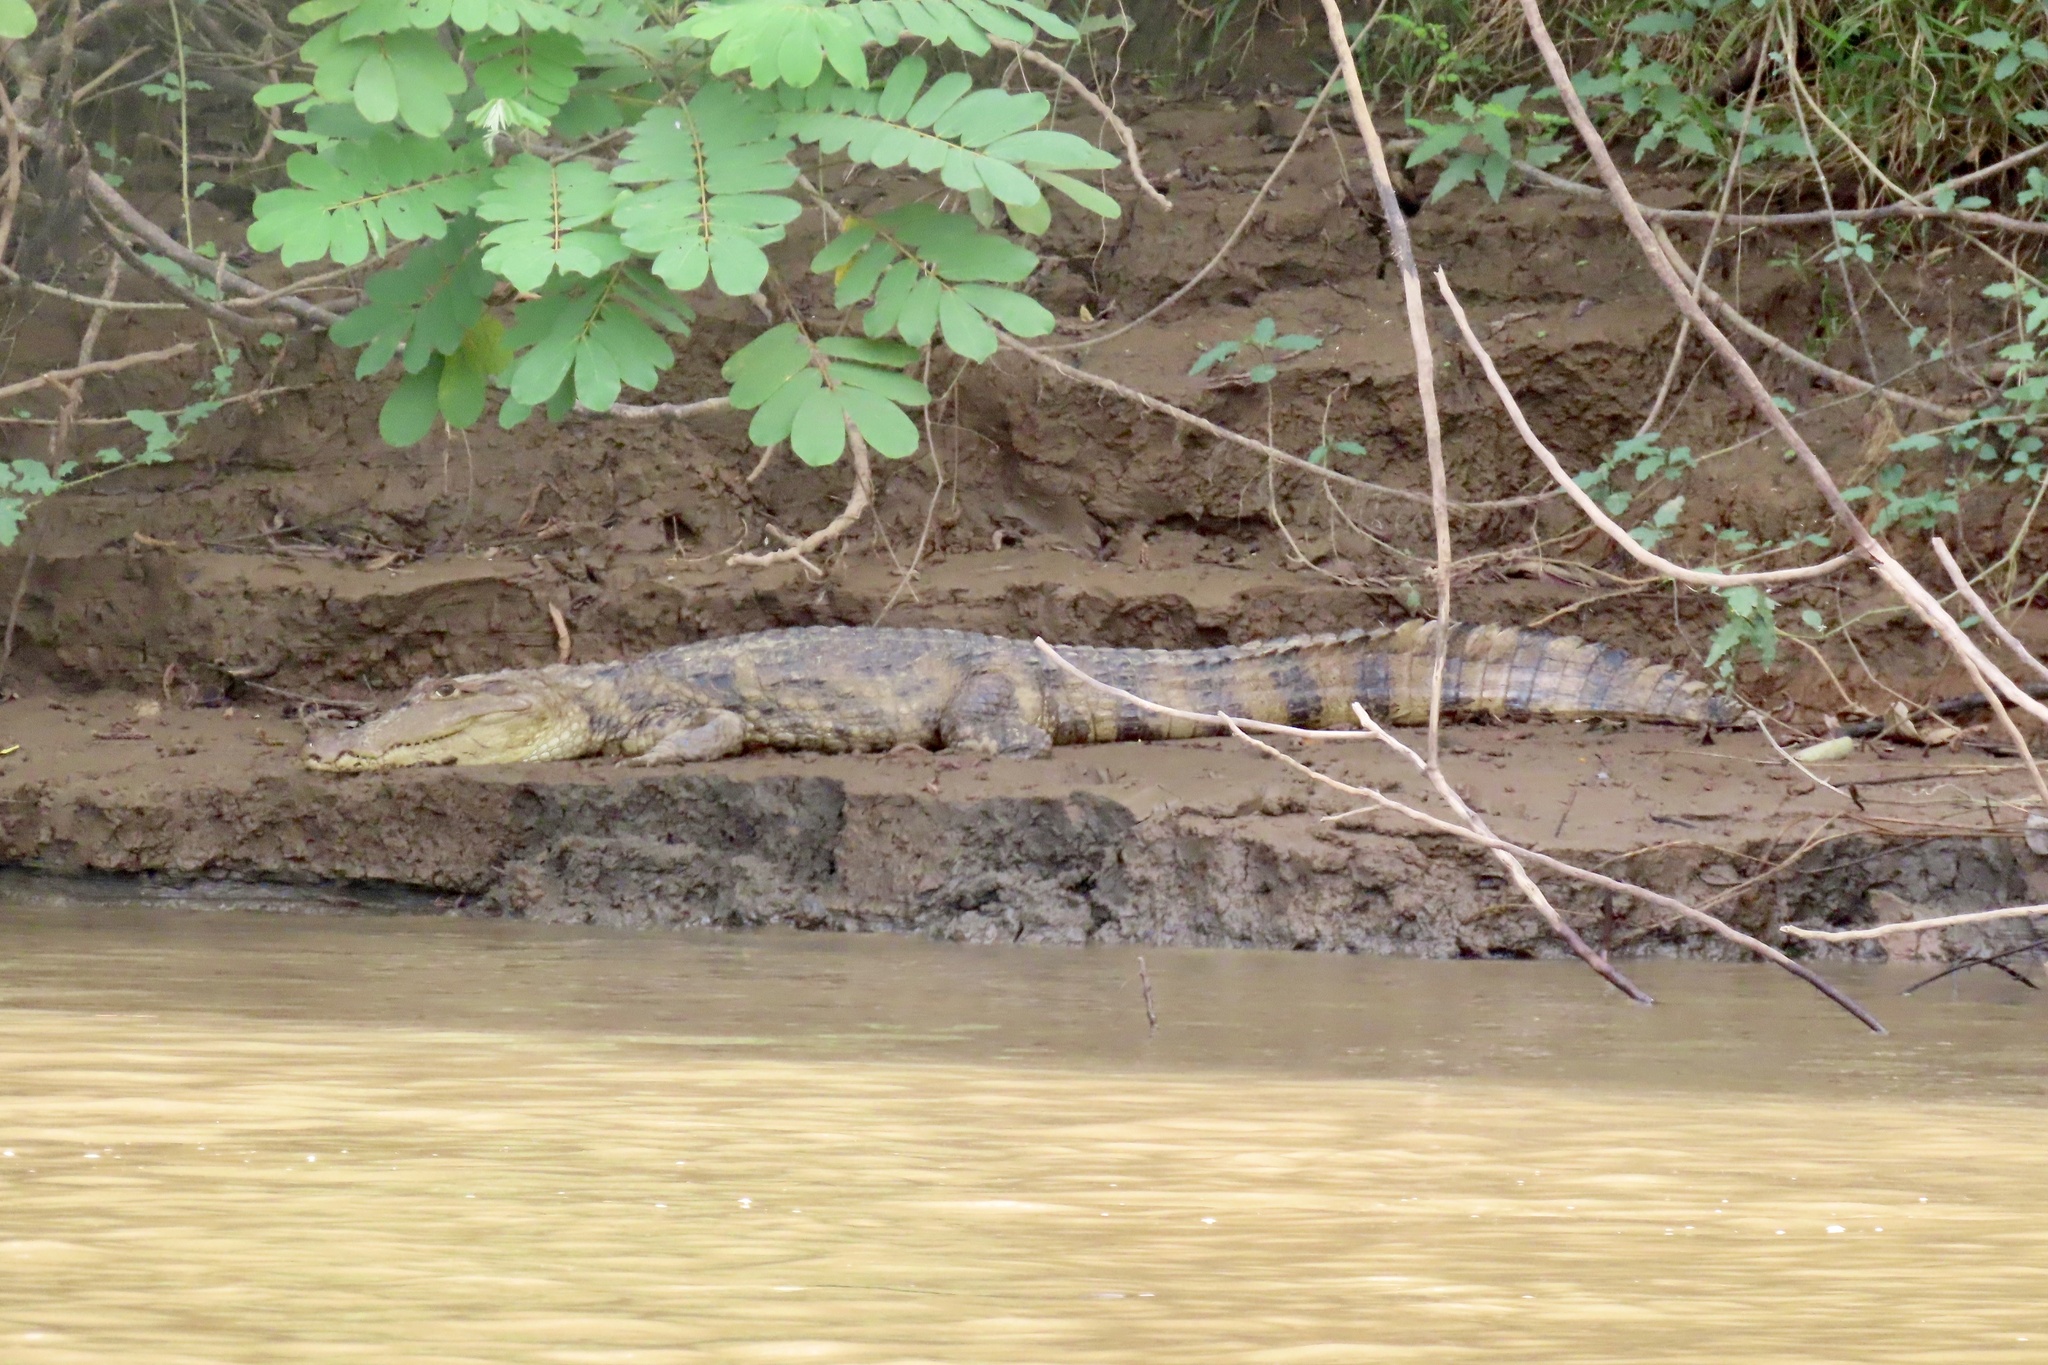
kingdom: Animalia
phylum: Chordata
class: Crocodylia
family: Alligatoridae
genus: Caiman
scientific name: Caiman crocodilus
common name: Common caiman
